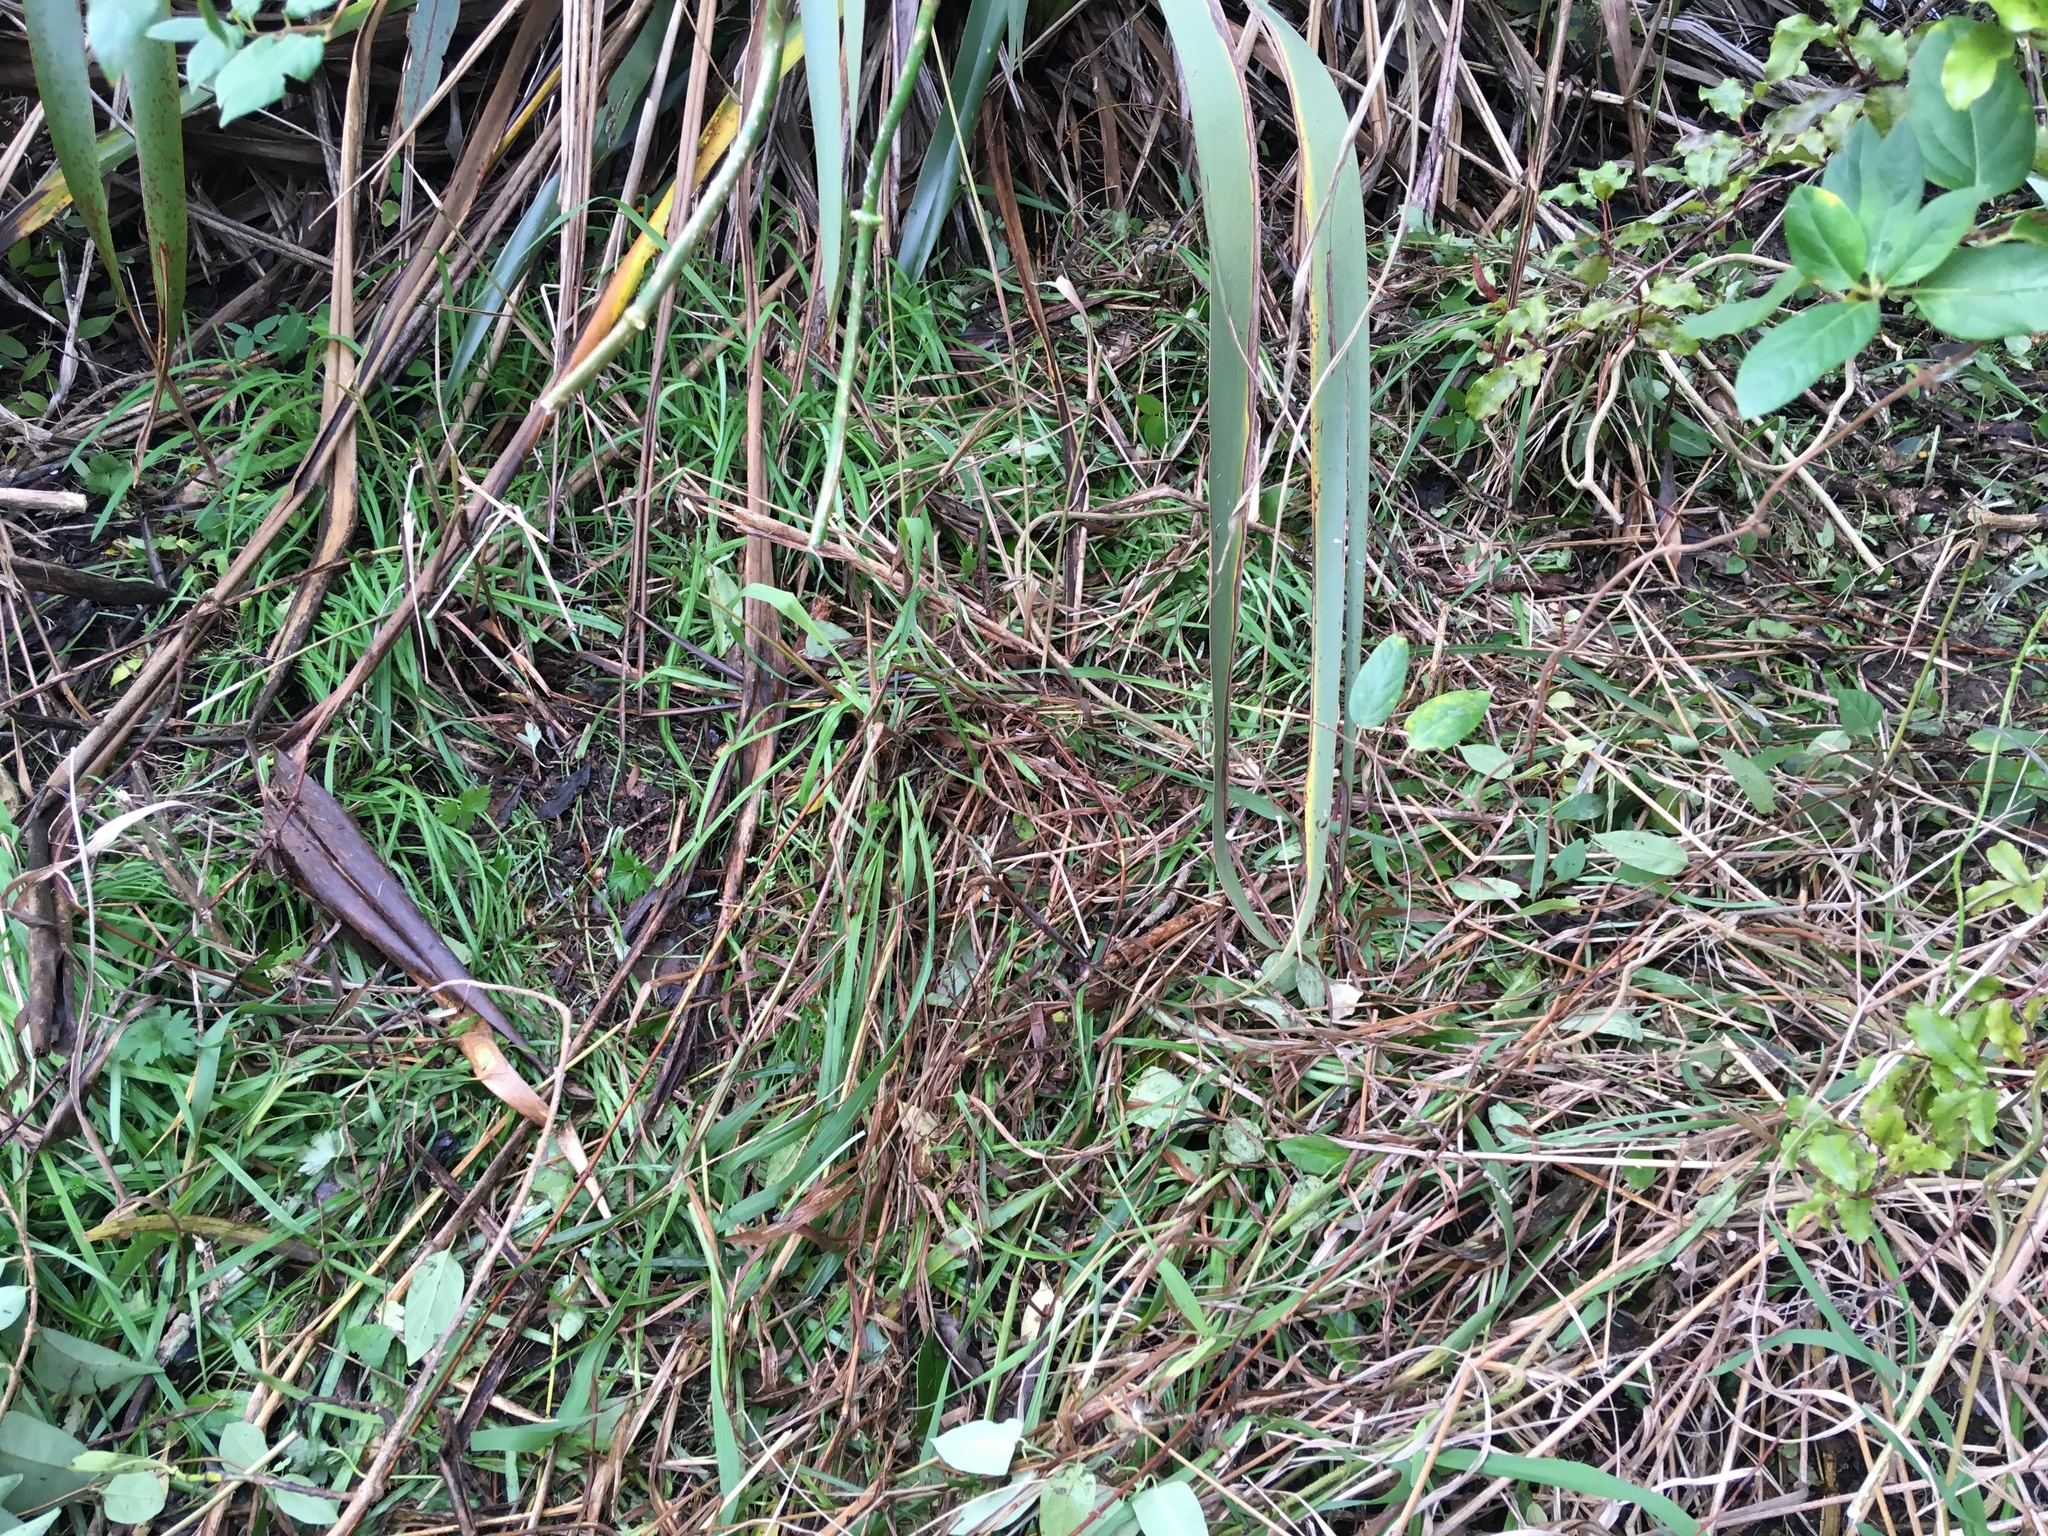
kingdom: Plantae
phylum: Tracheophyta
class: Magnoliopsida
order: Dipsacales
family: Caprifoliaceae
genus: Lonicera
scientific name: Lonicera japonica
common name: Japanese honeysuckle
